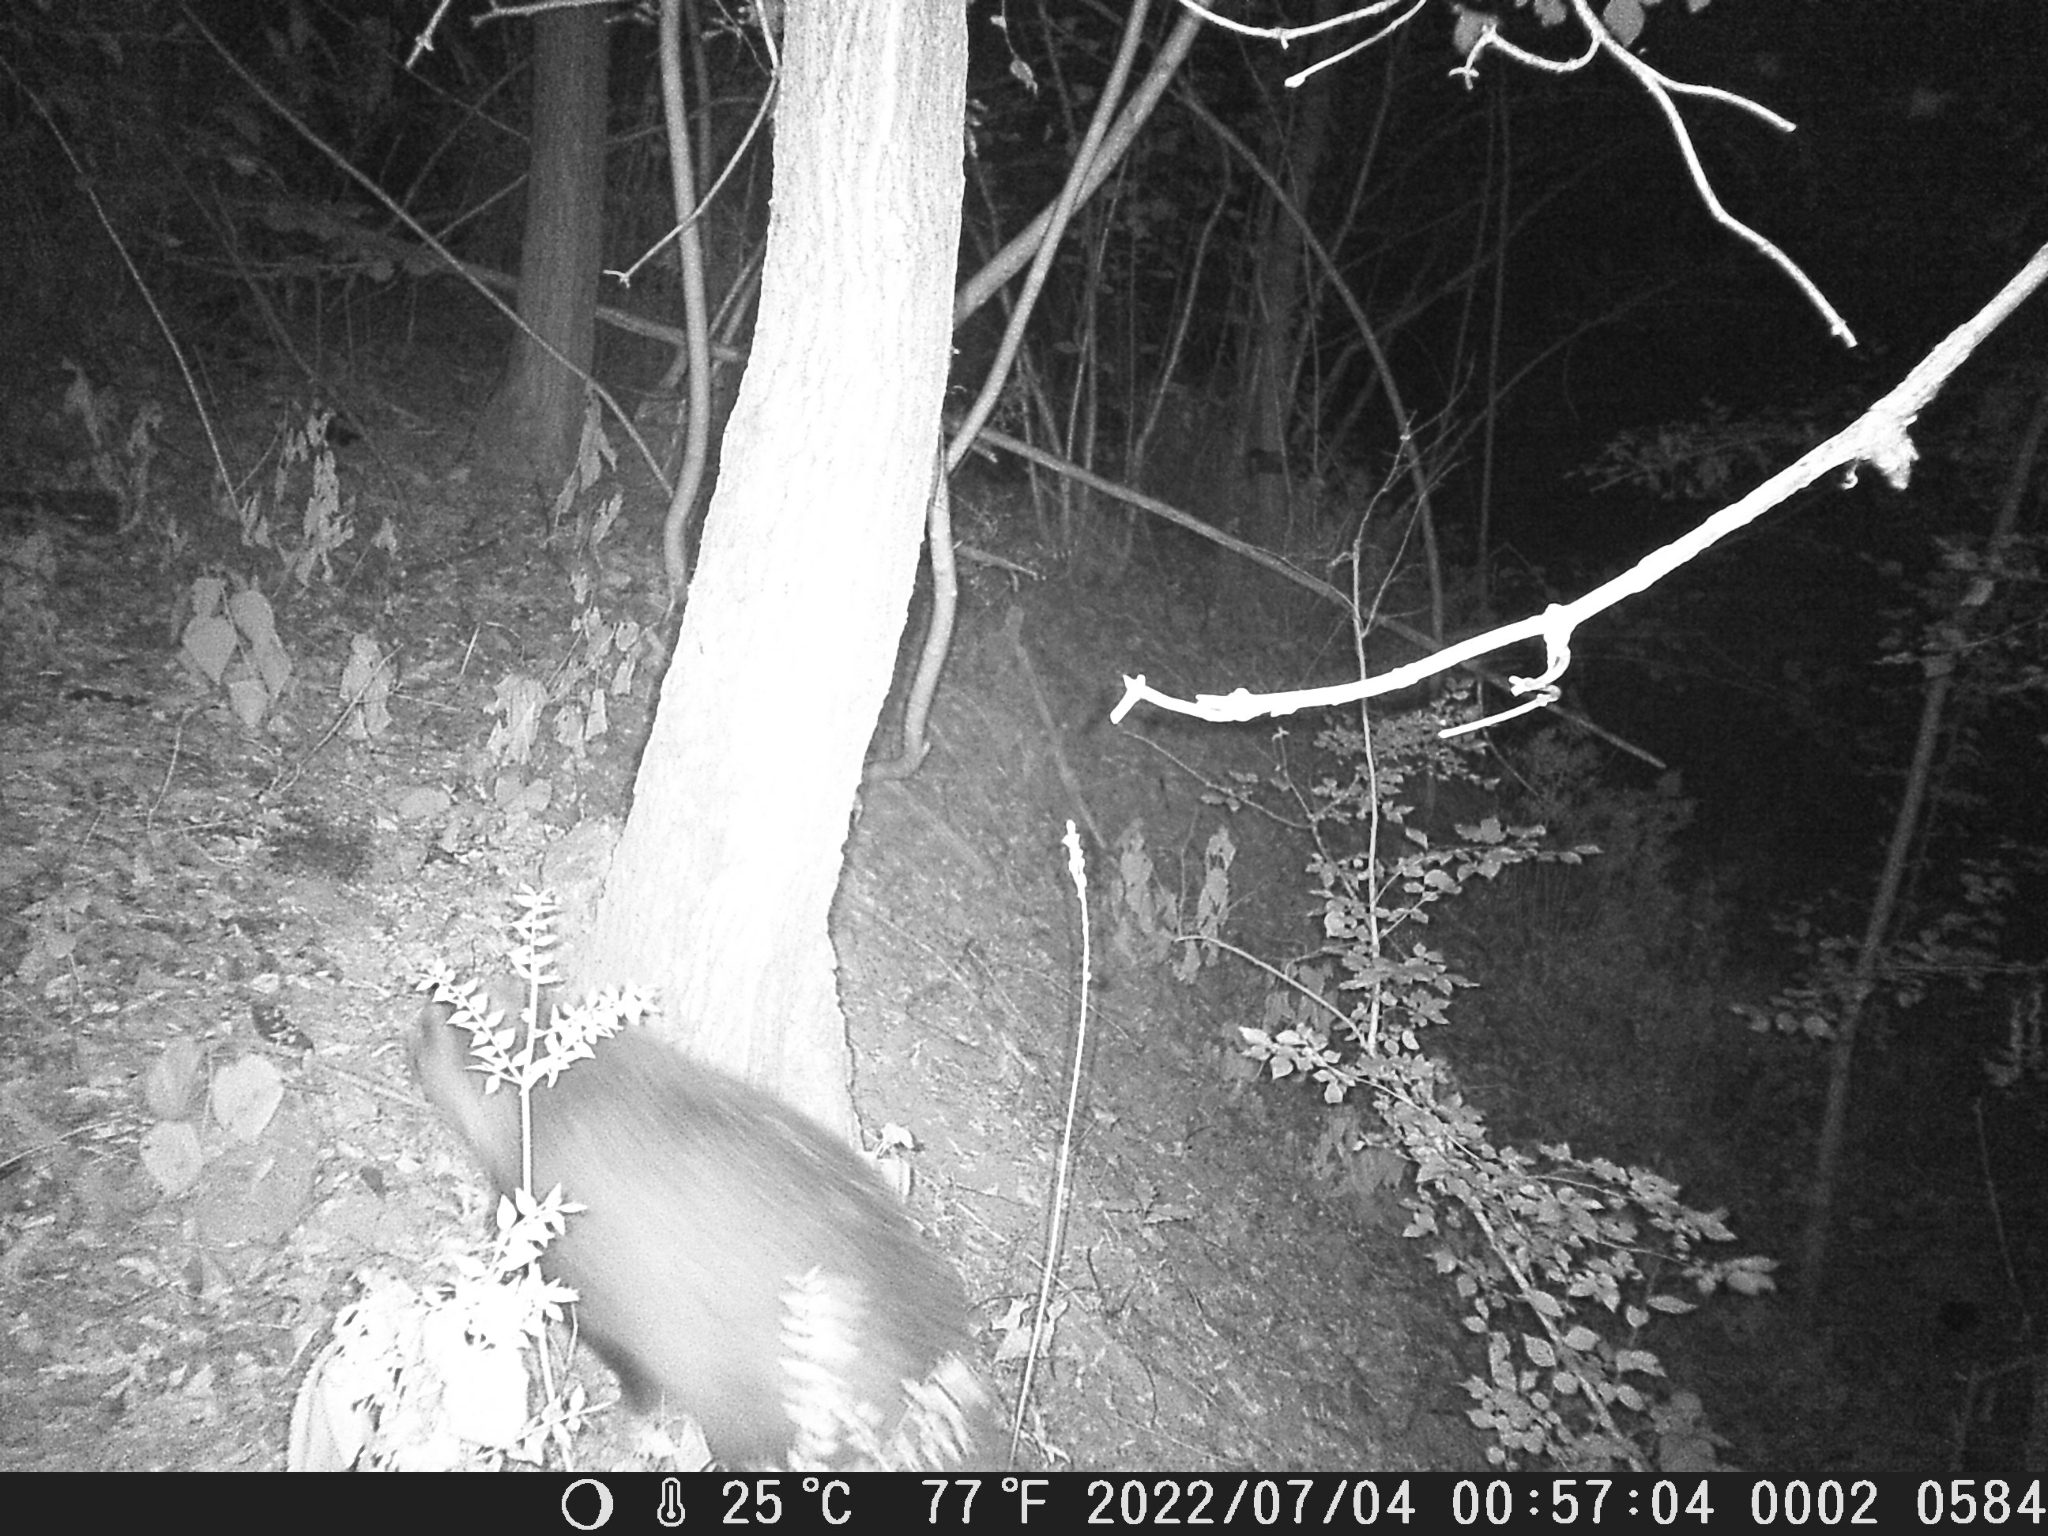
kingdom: Animalia
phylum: Chordata
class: Mammalia
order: Carnivora
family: Mustelidae
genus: Meles
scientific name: Meles meles
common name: Eurasian badger
